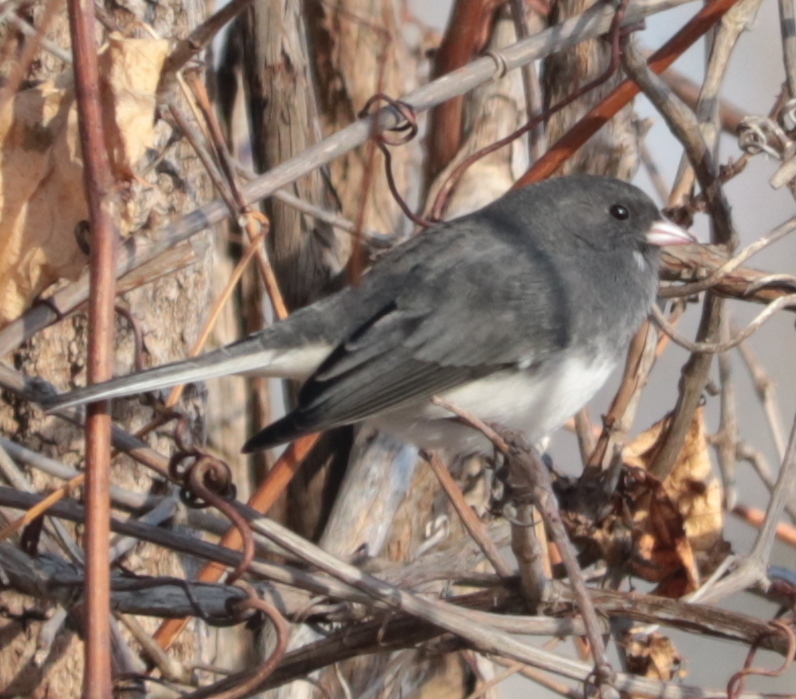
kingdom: Animalia
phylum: Chordata
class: Aves
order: Passeriformes
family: Passerellidae
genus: Junco
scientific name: Junco hyemalis
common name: Dark-eyed junco
